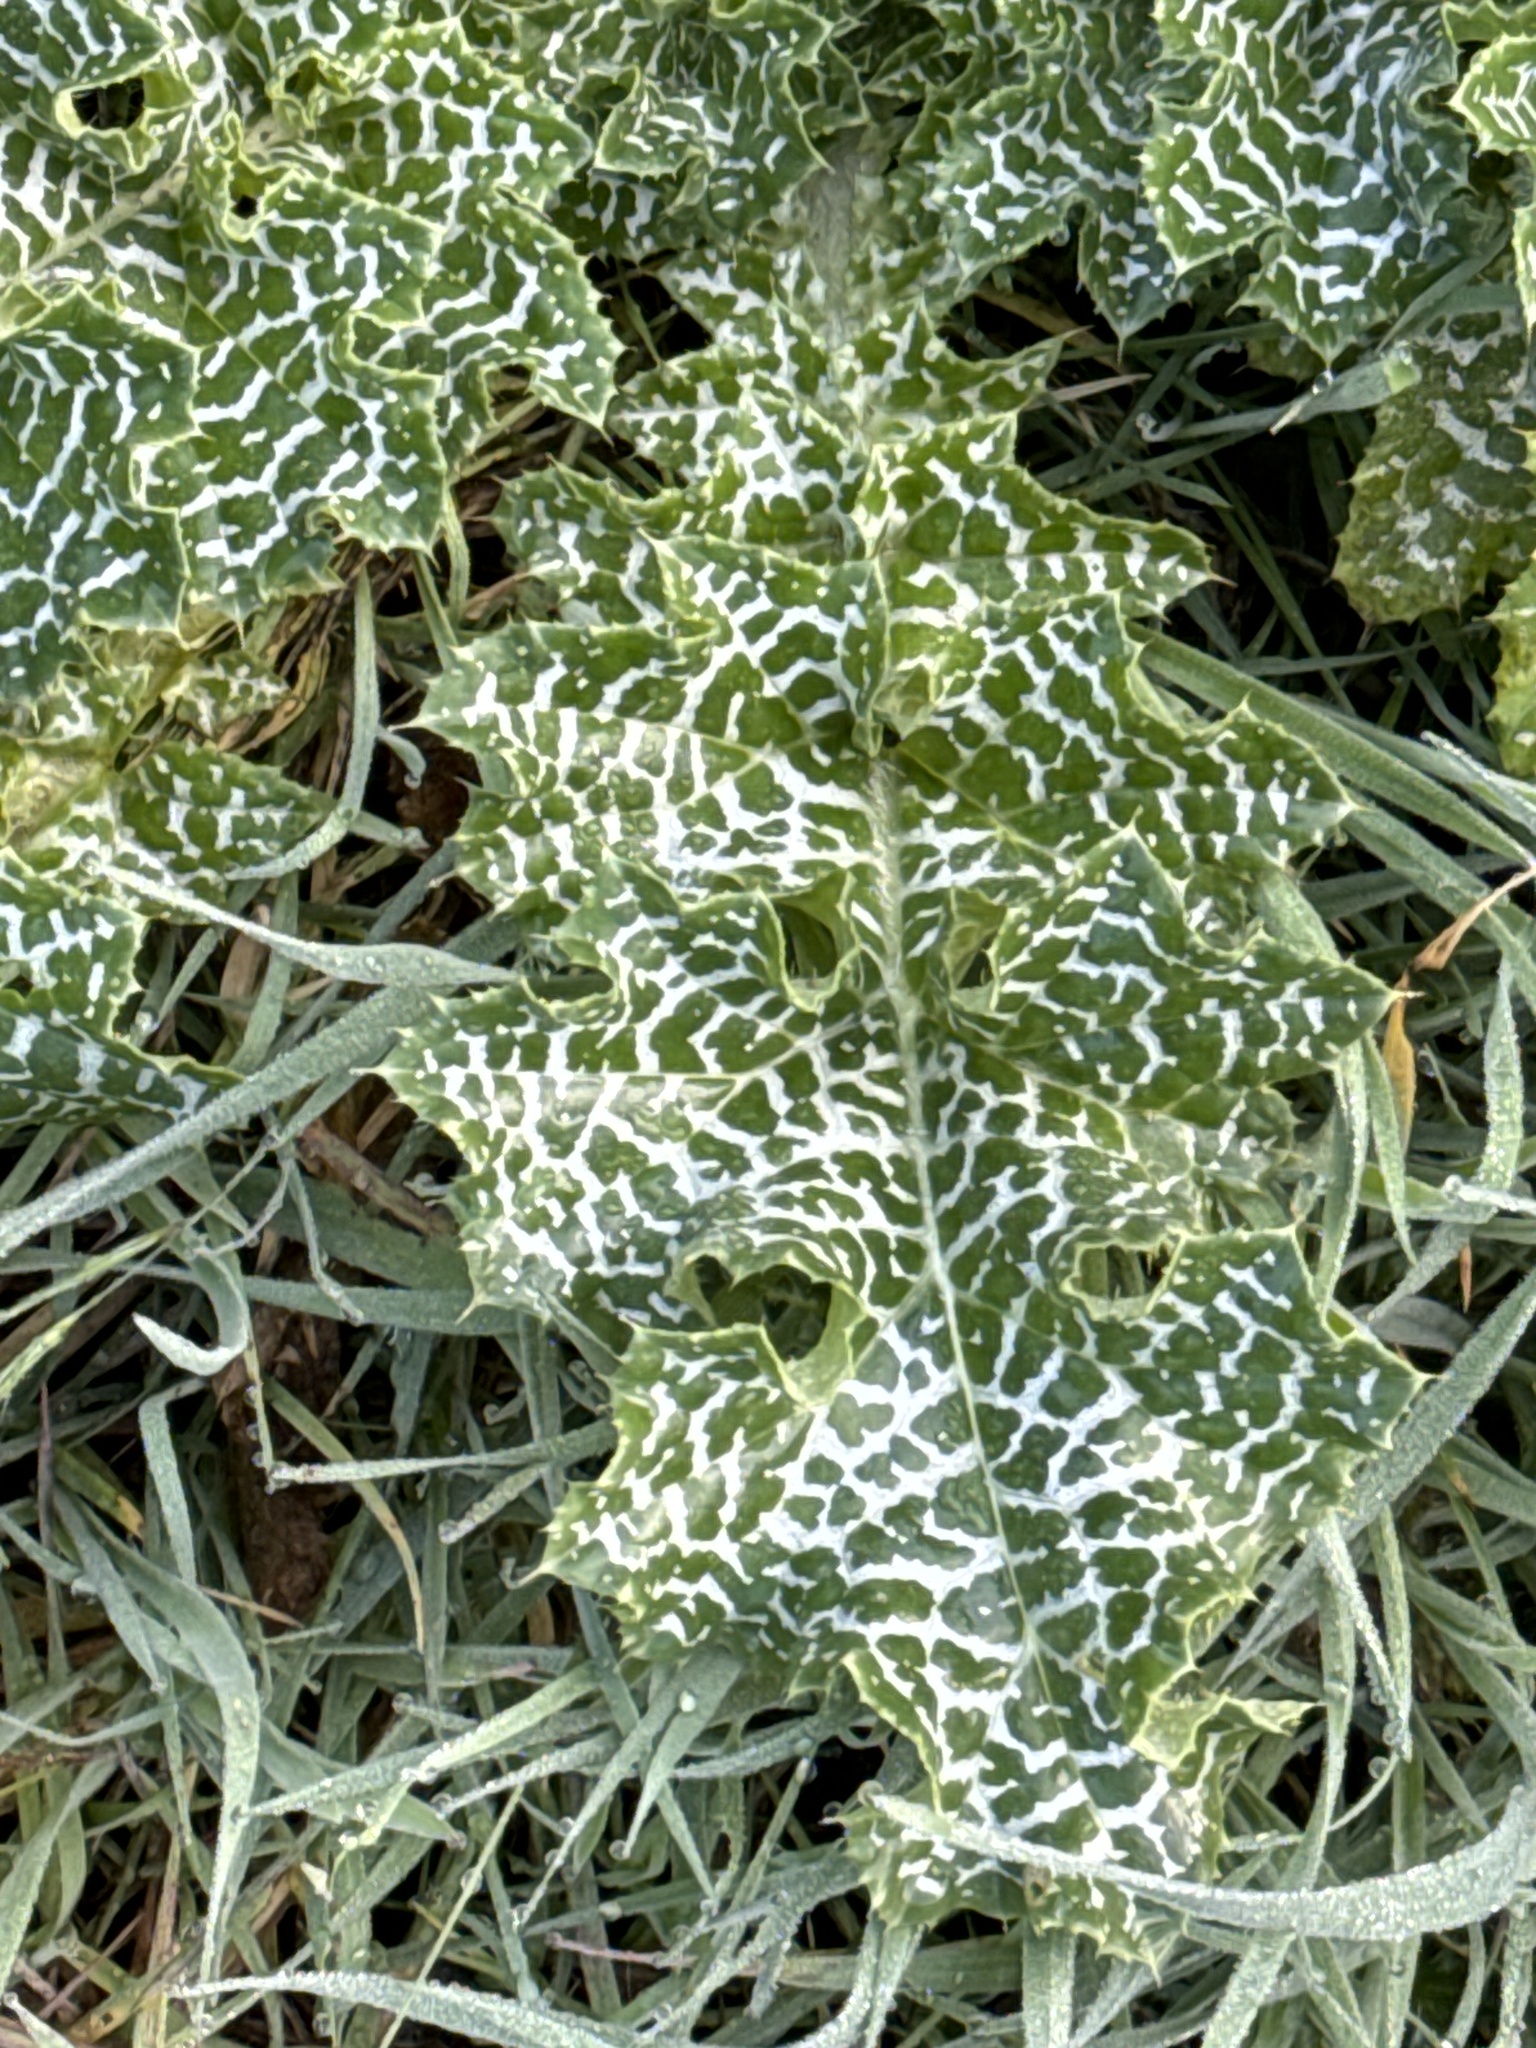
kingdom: Plantae
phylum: Tracheophyta
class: Magnoliopsida
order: Asterales
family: Asteraceae
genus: Silybum
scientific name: Silybum marianum
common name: Milk thistle
